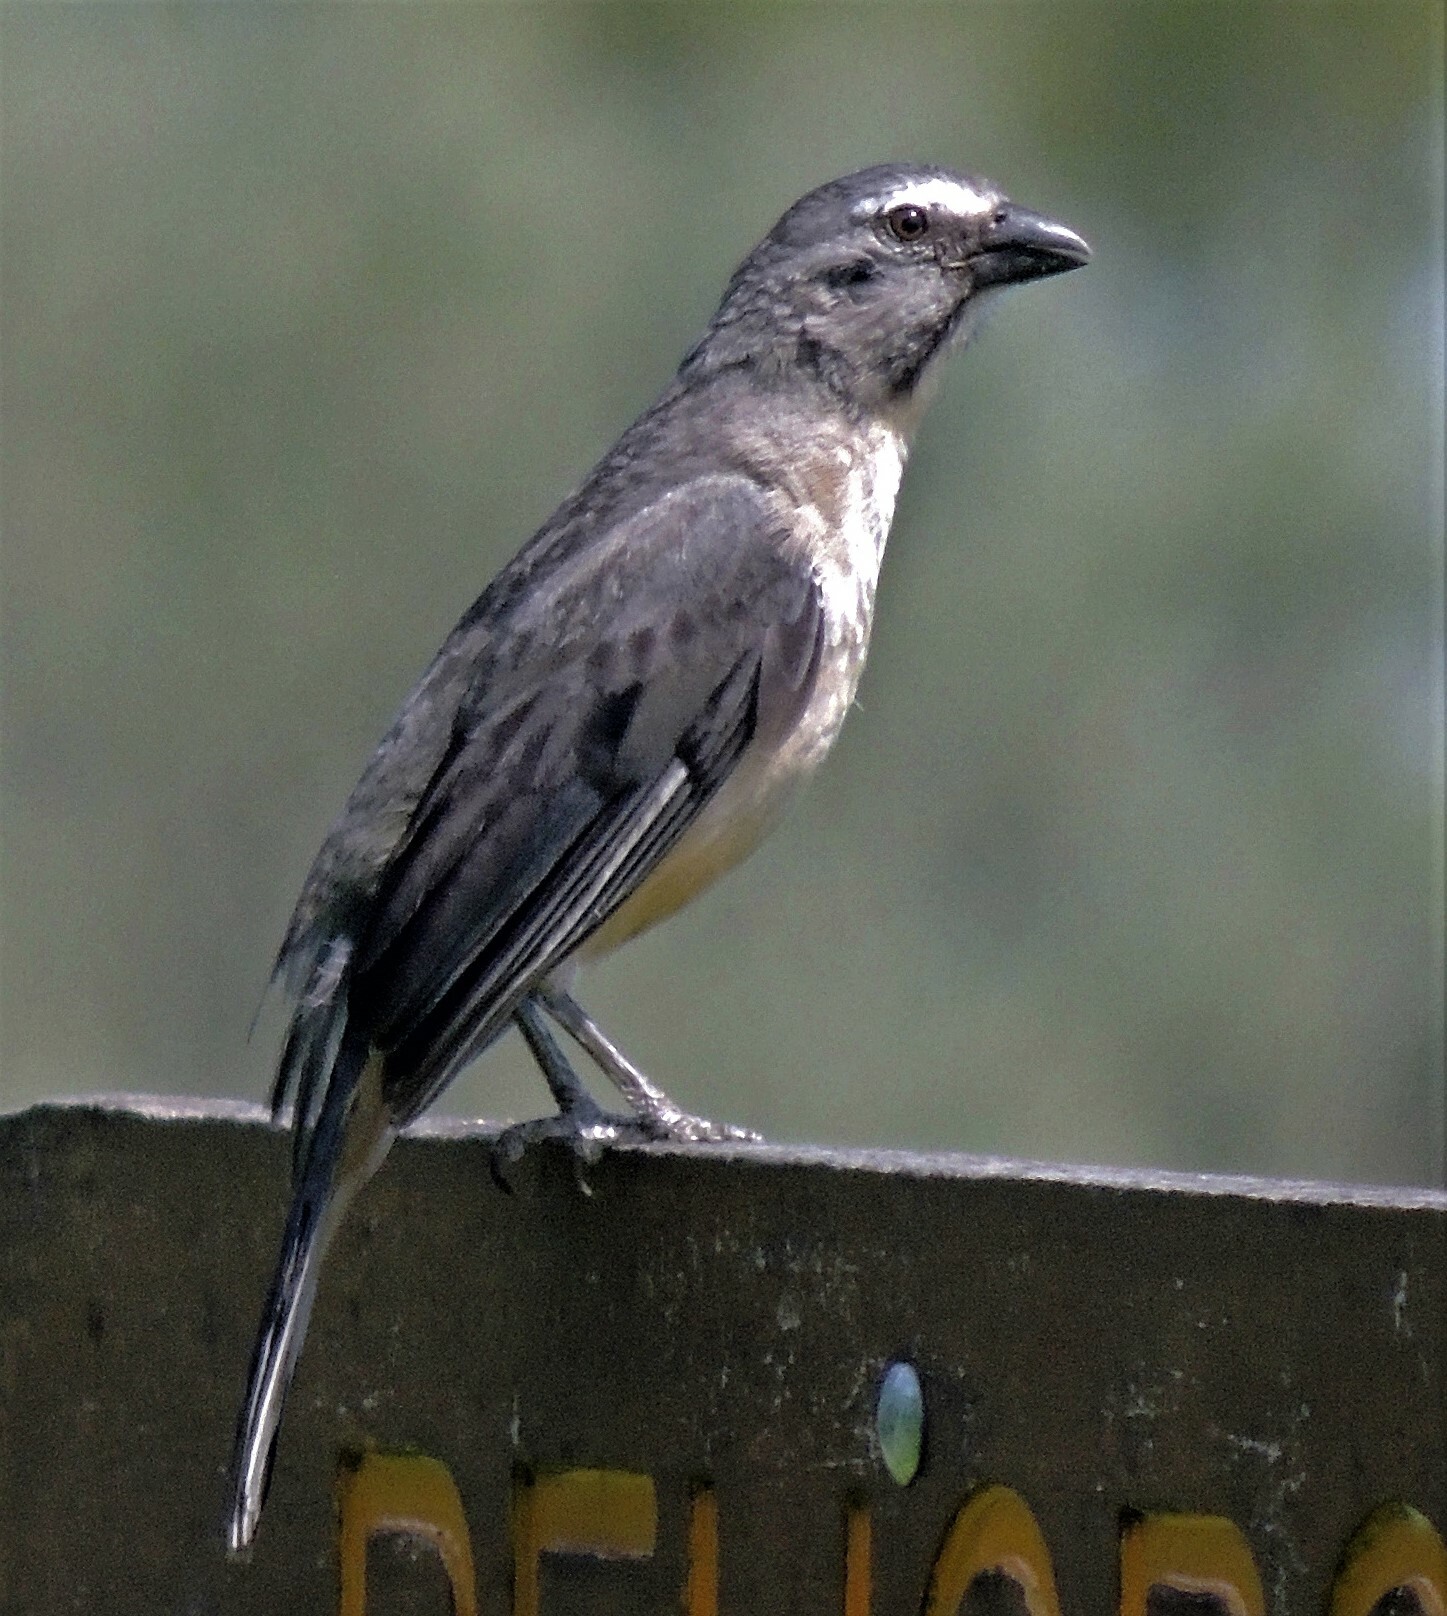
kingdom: Animalia
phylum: Chordata
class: Aves
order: Passeriformes
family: Thraupidae
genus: Saltator
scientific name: Saltator coerulescens
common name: Grayish saltator
